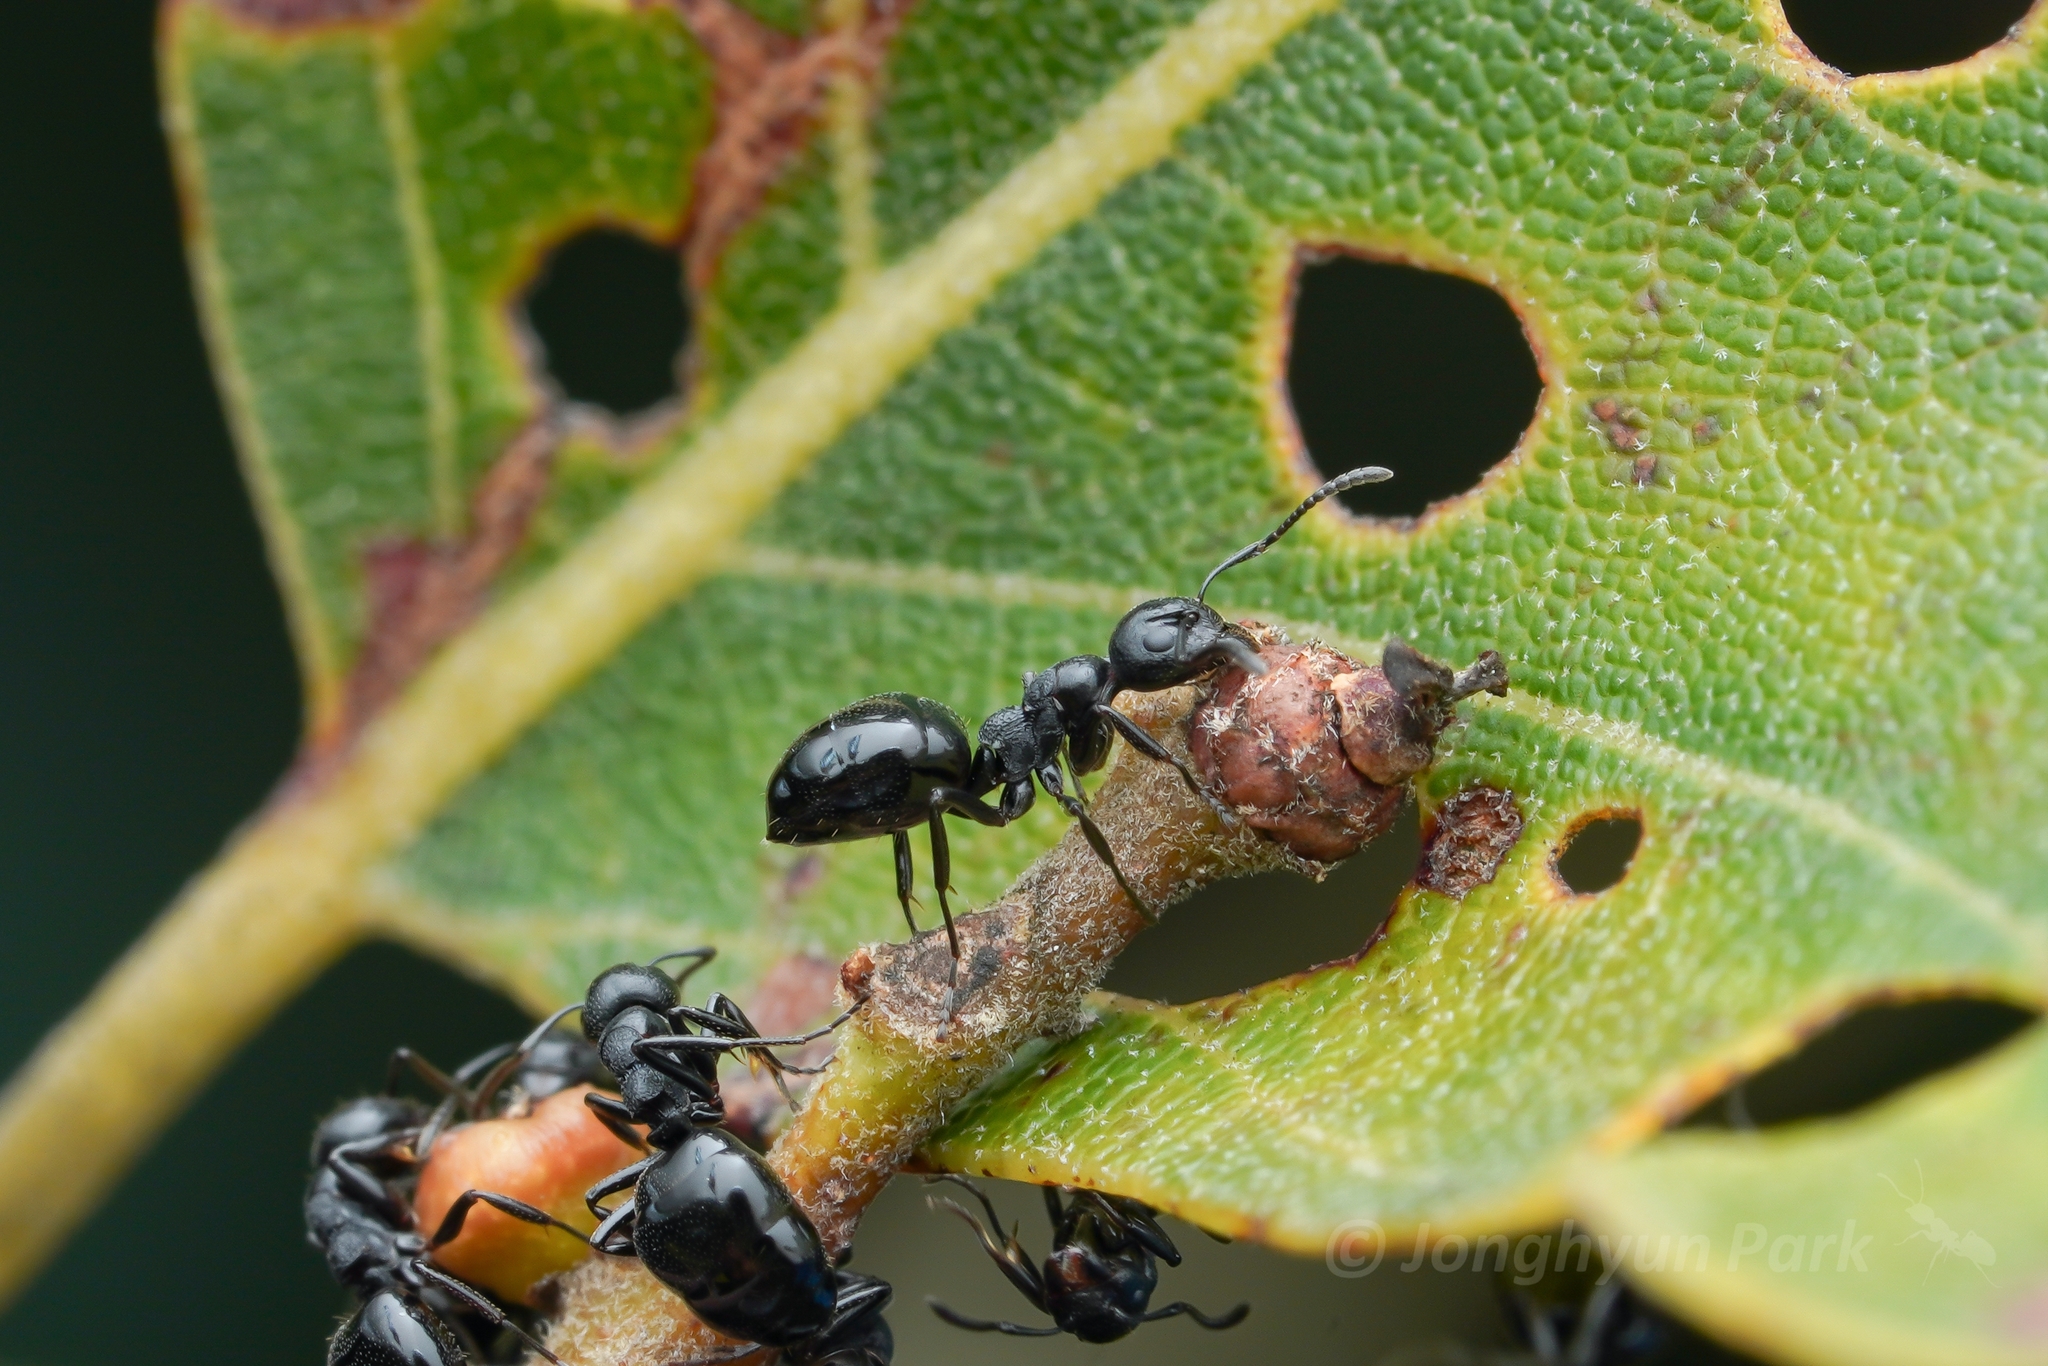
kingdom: Animalia
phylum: Arthropoda
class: Insecta
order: Hymenoptera
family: Formicidae
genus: Dolichoderus
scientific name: Dolichoderus taschenbergi
